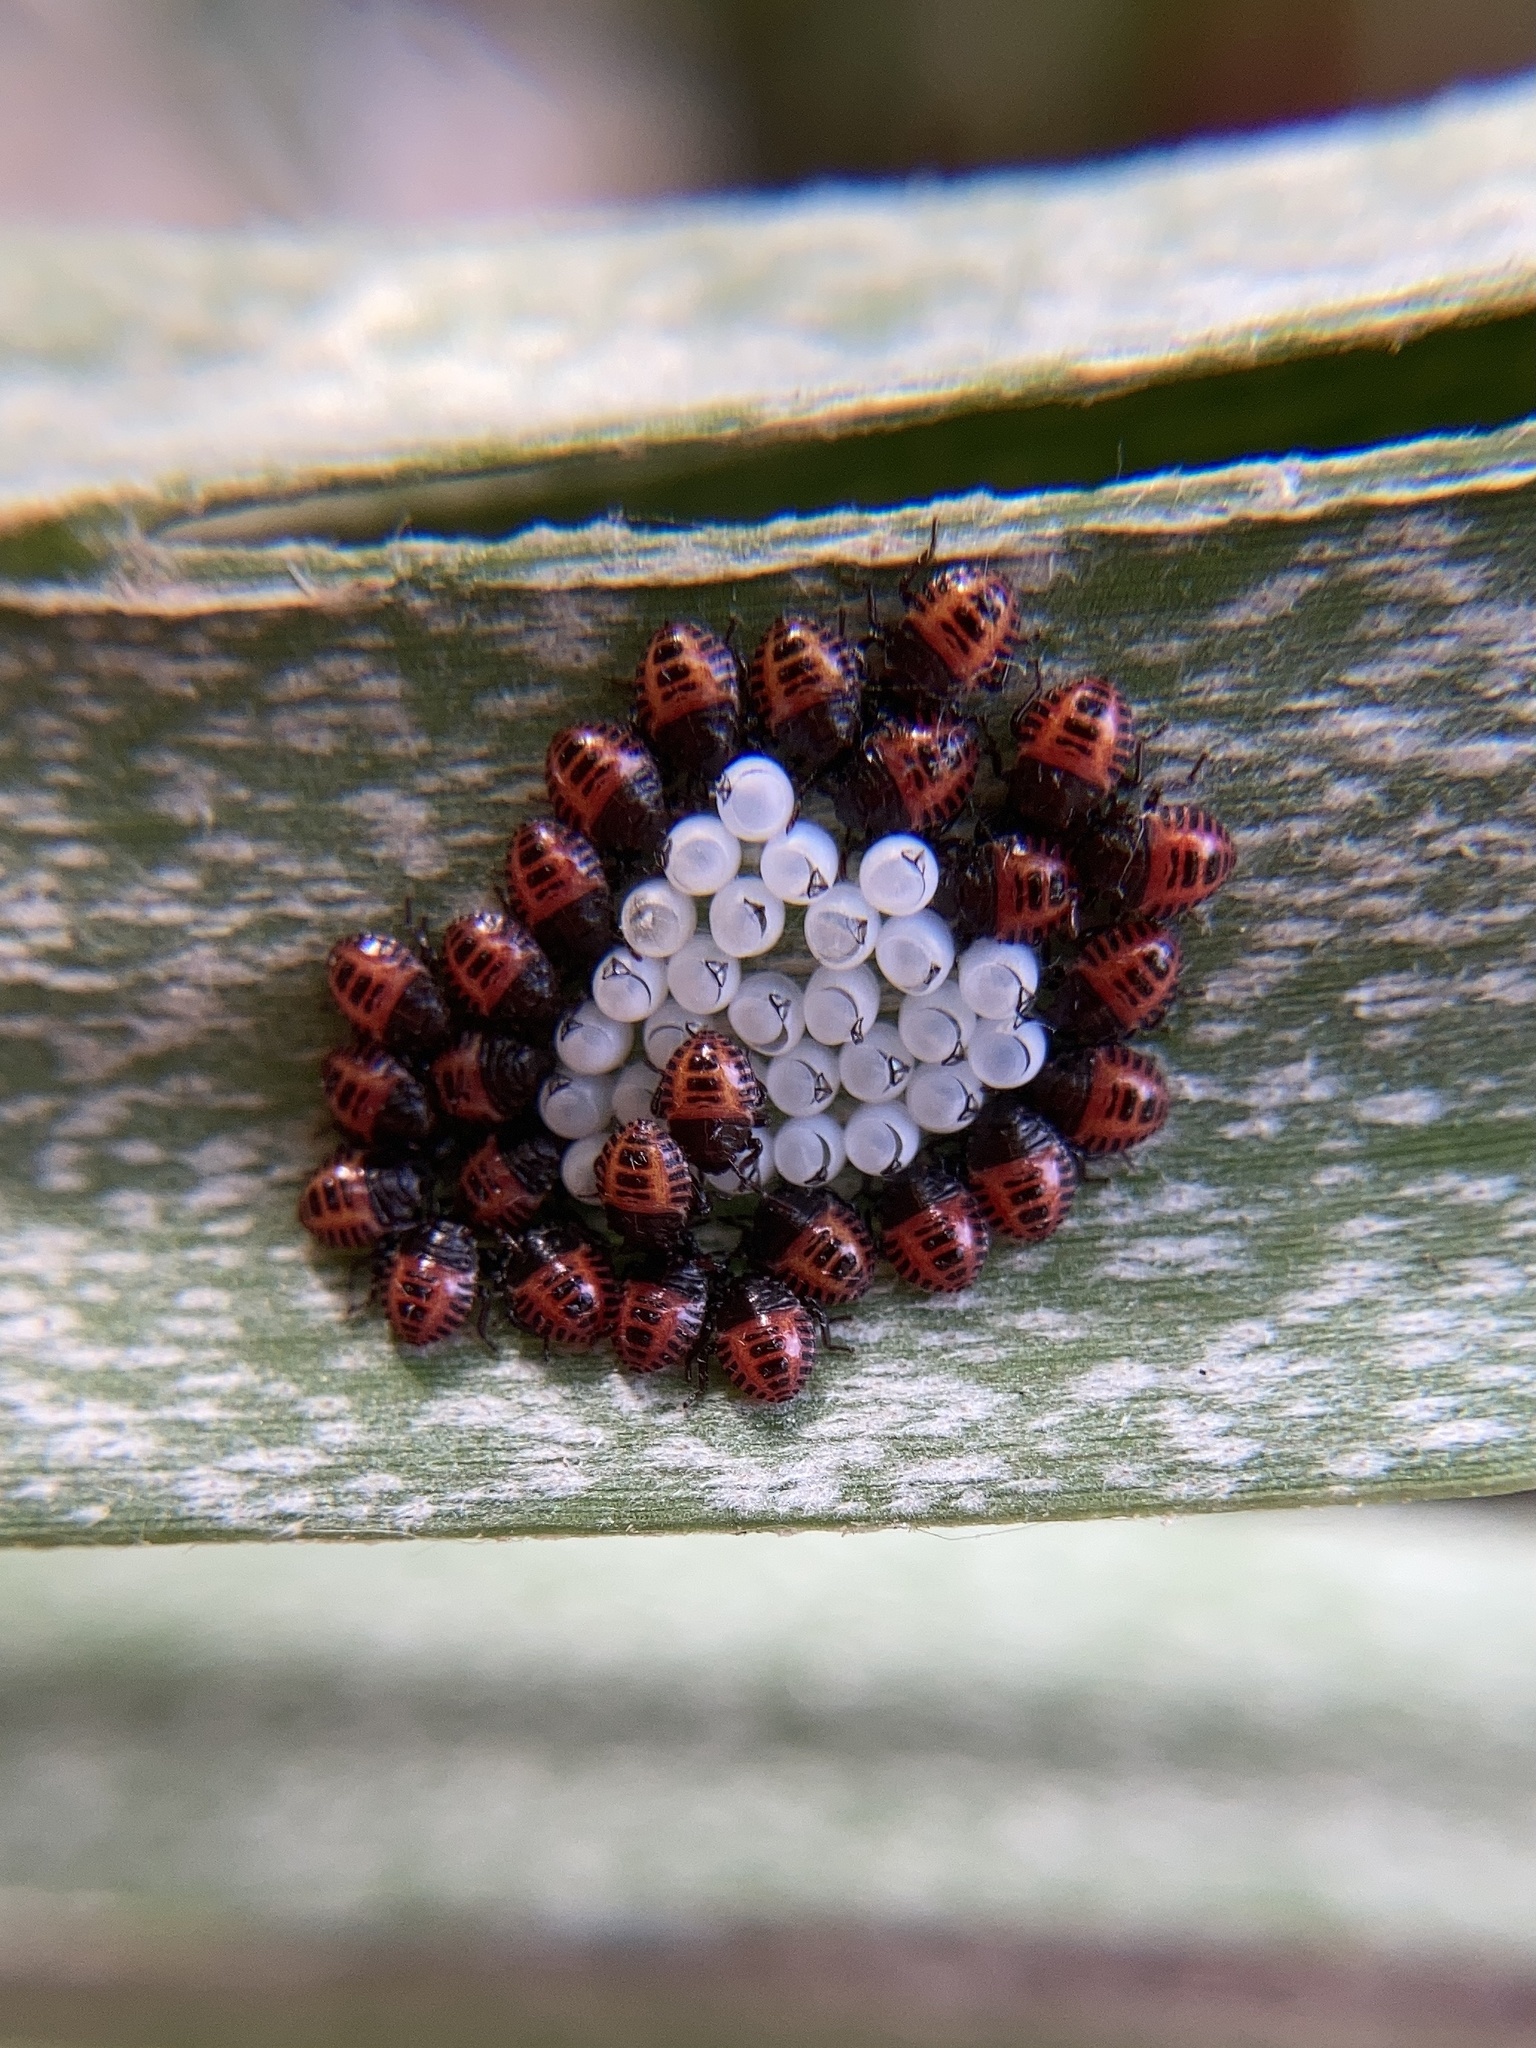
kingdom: Animalia
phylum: Arthropoda
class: Insecta
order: Hemiptera
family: Pentatomidae
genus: Halyomorpha
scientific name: Halyomorpha halys
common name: Brown marmorated stink bug
